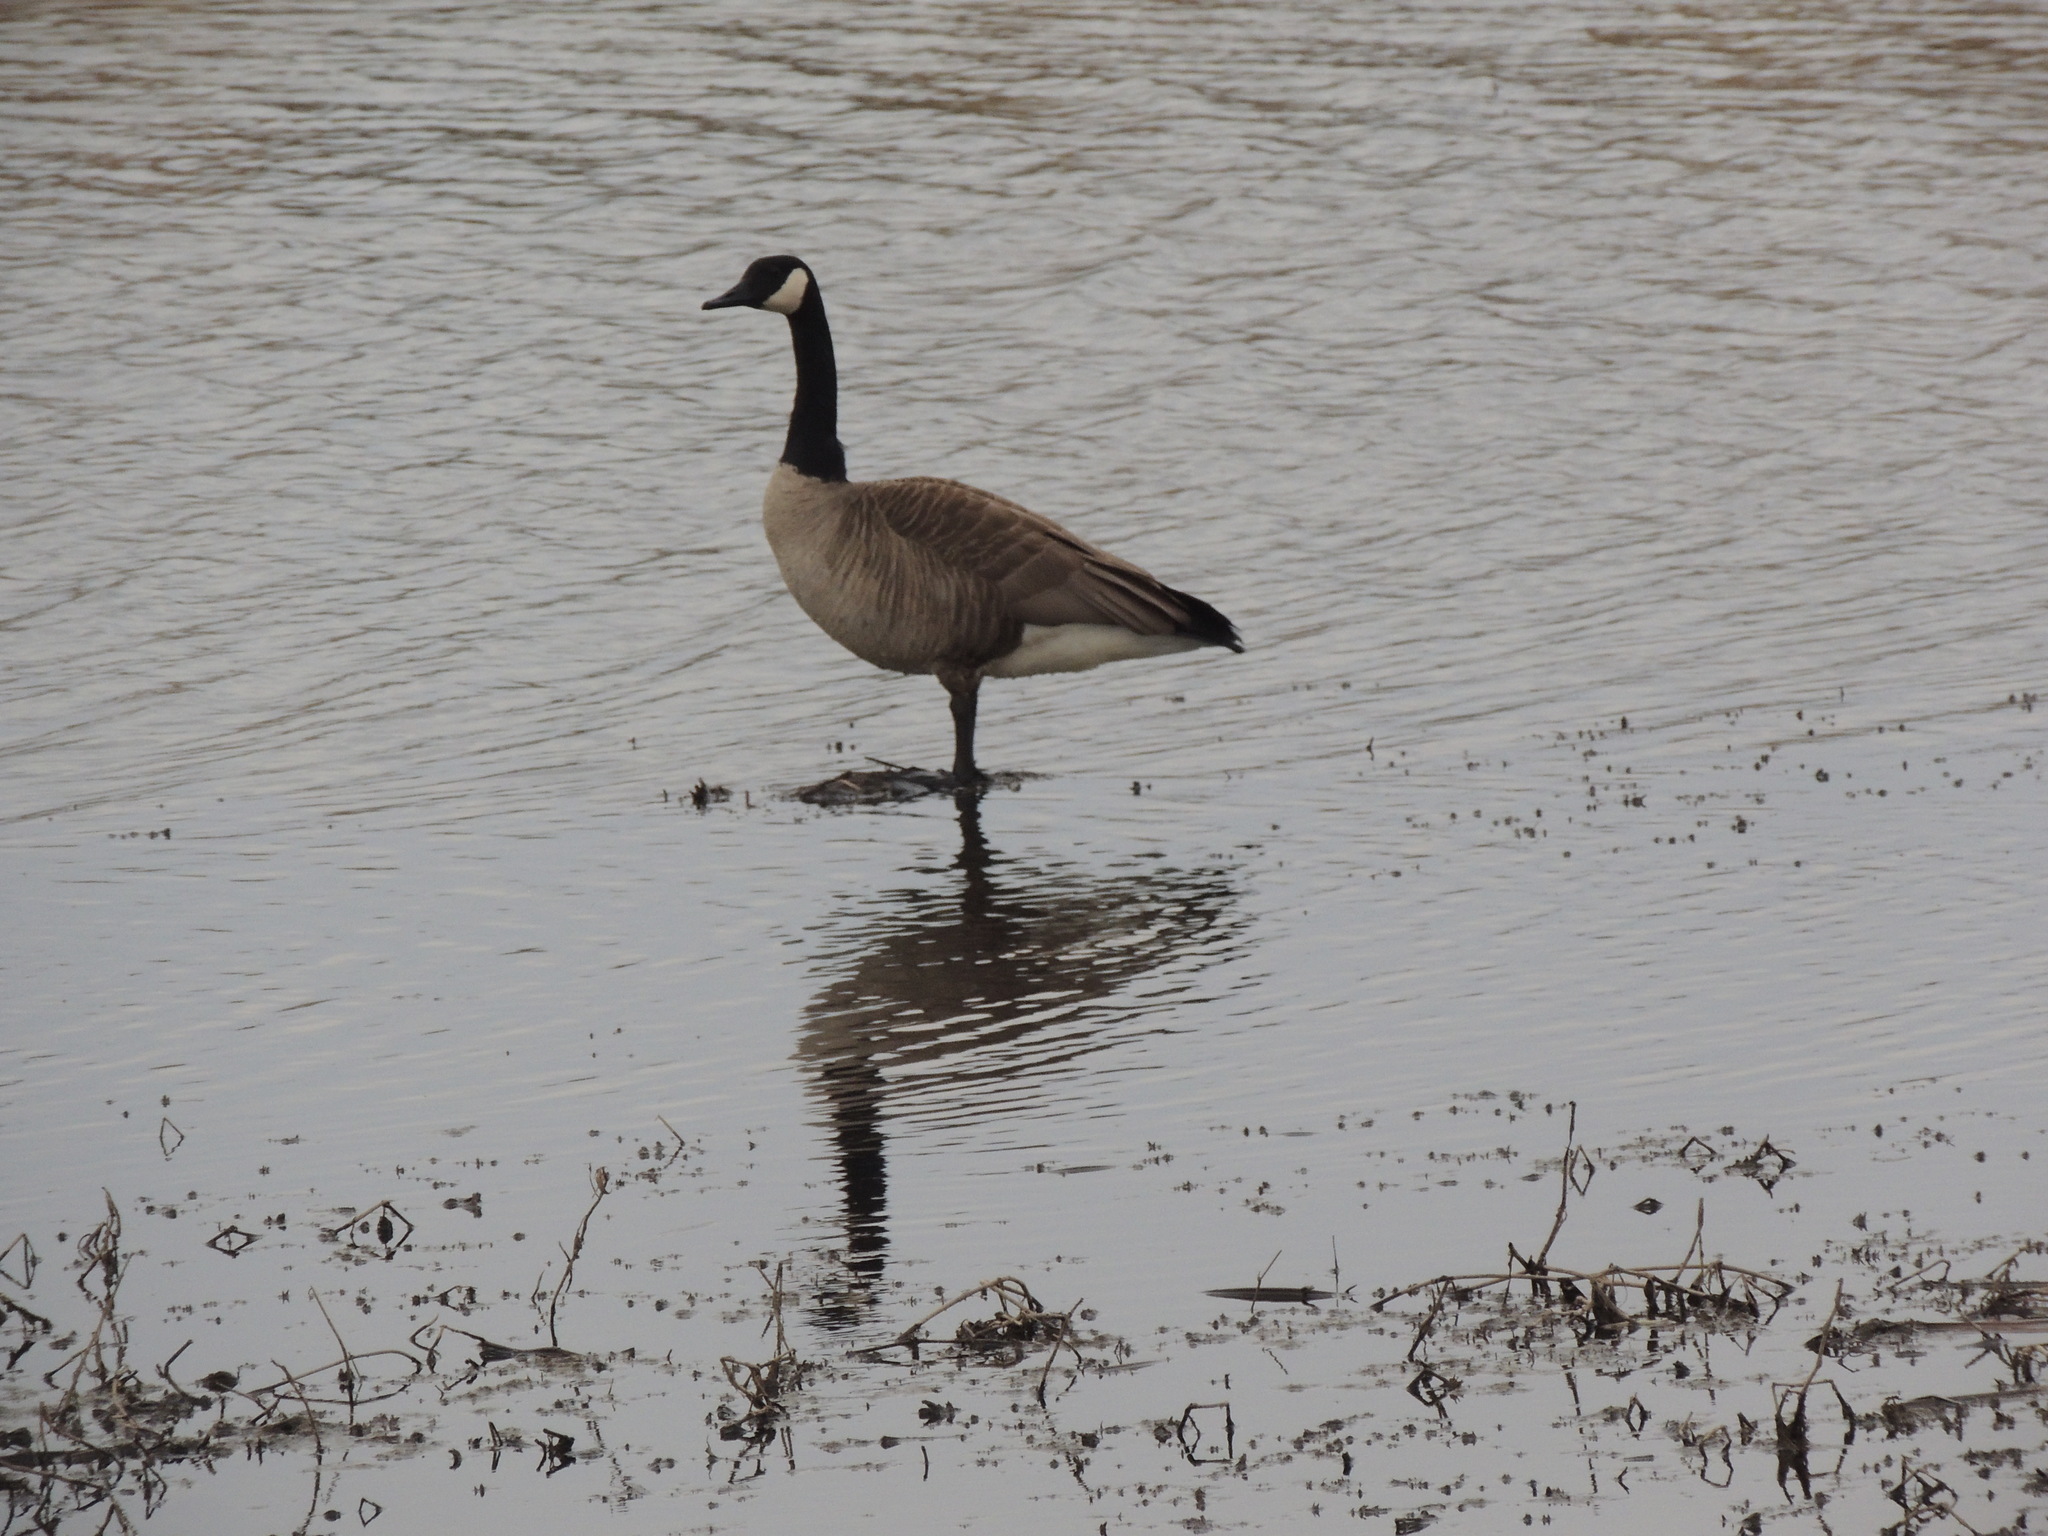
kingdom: Animalia
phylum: Chordata
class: Aves
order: Anseriformes
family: Anatidae
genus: Branta
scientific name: Branta canadensis
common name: Canada goose
